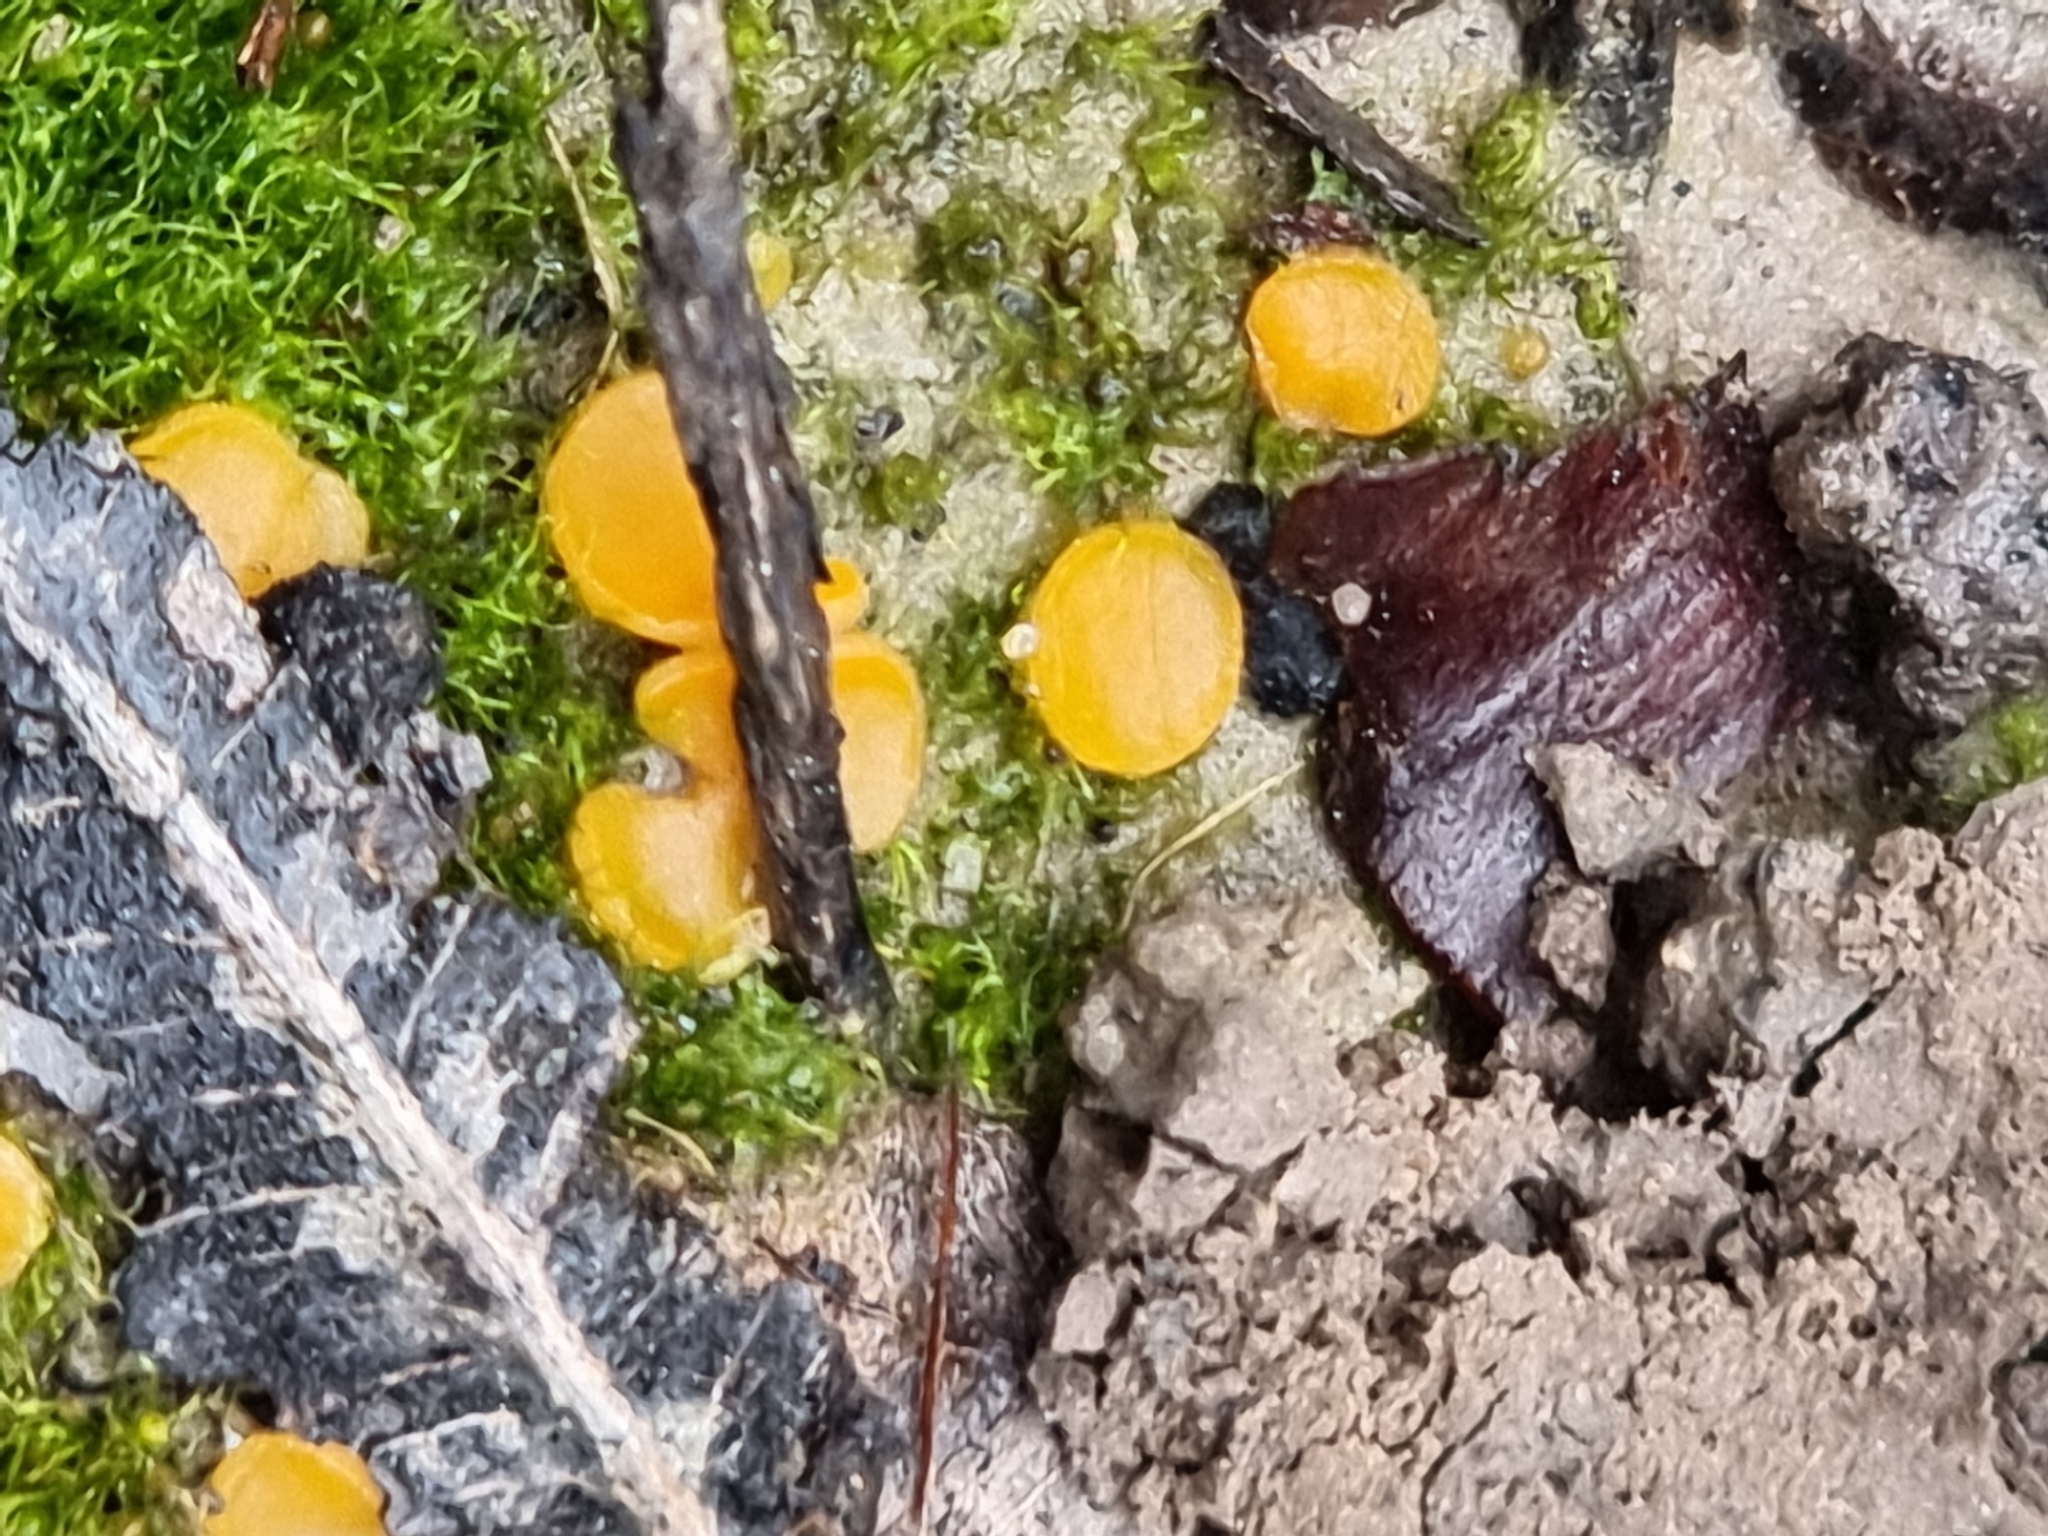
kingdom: Fungi
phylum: Ascomycota
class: Leotiomycetes
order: Helotiales
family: Pezizellaceae
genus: Calycina
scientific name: Calycina citrina
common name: Yellow fairy cups
